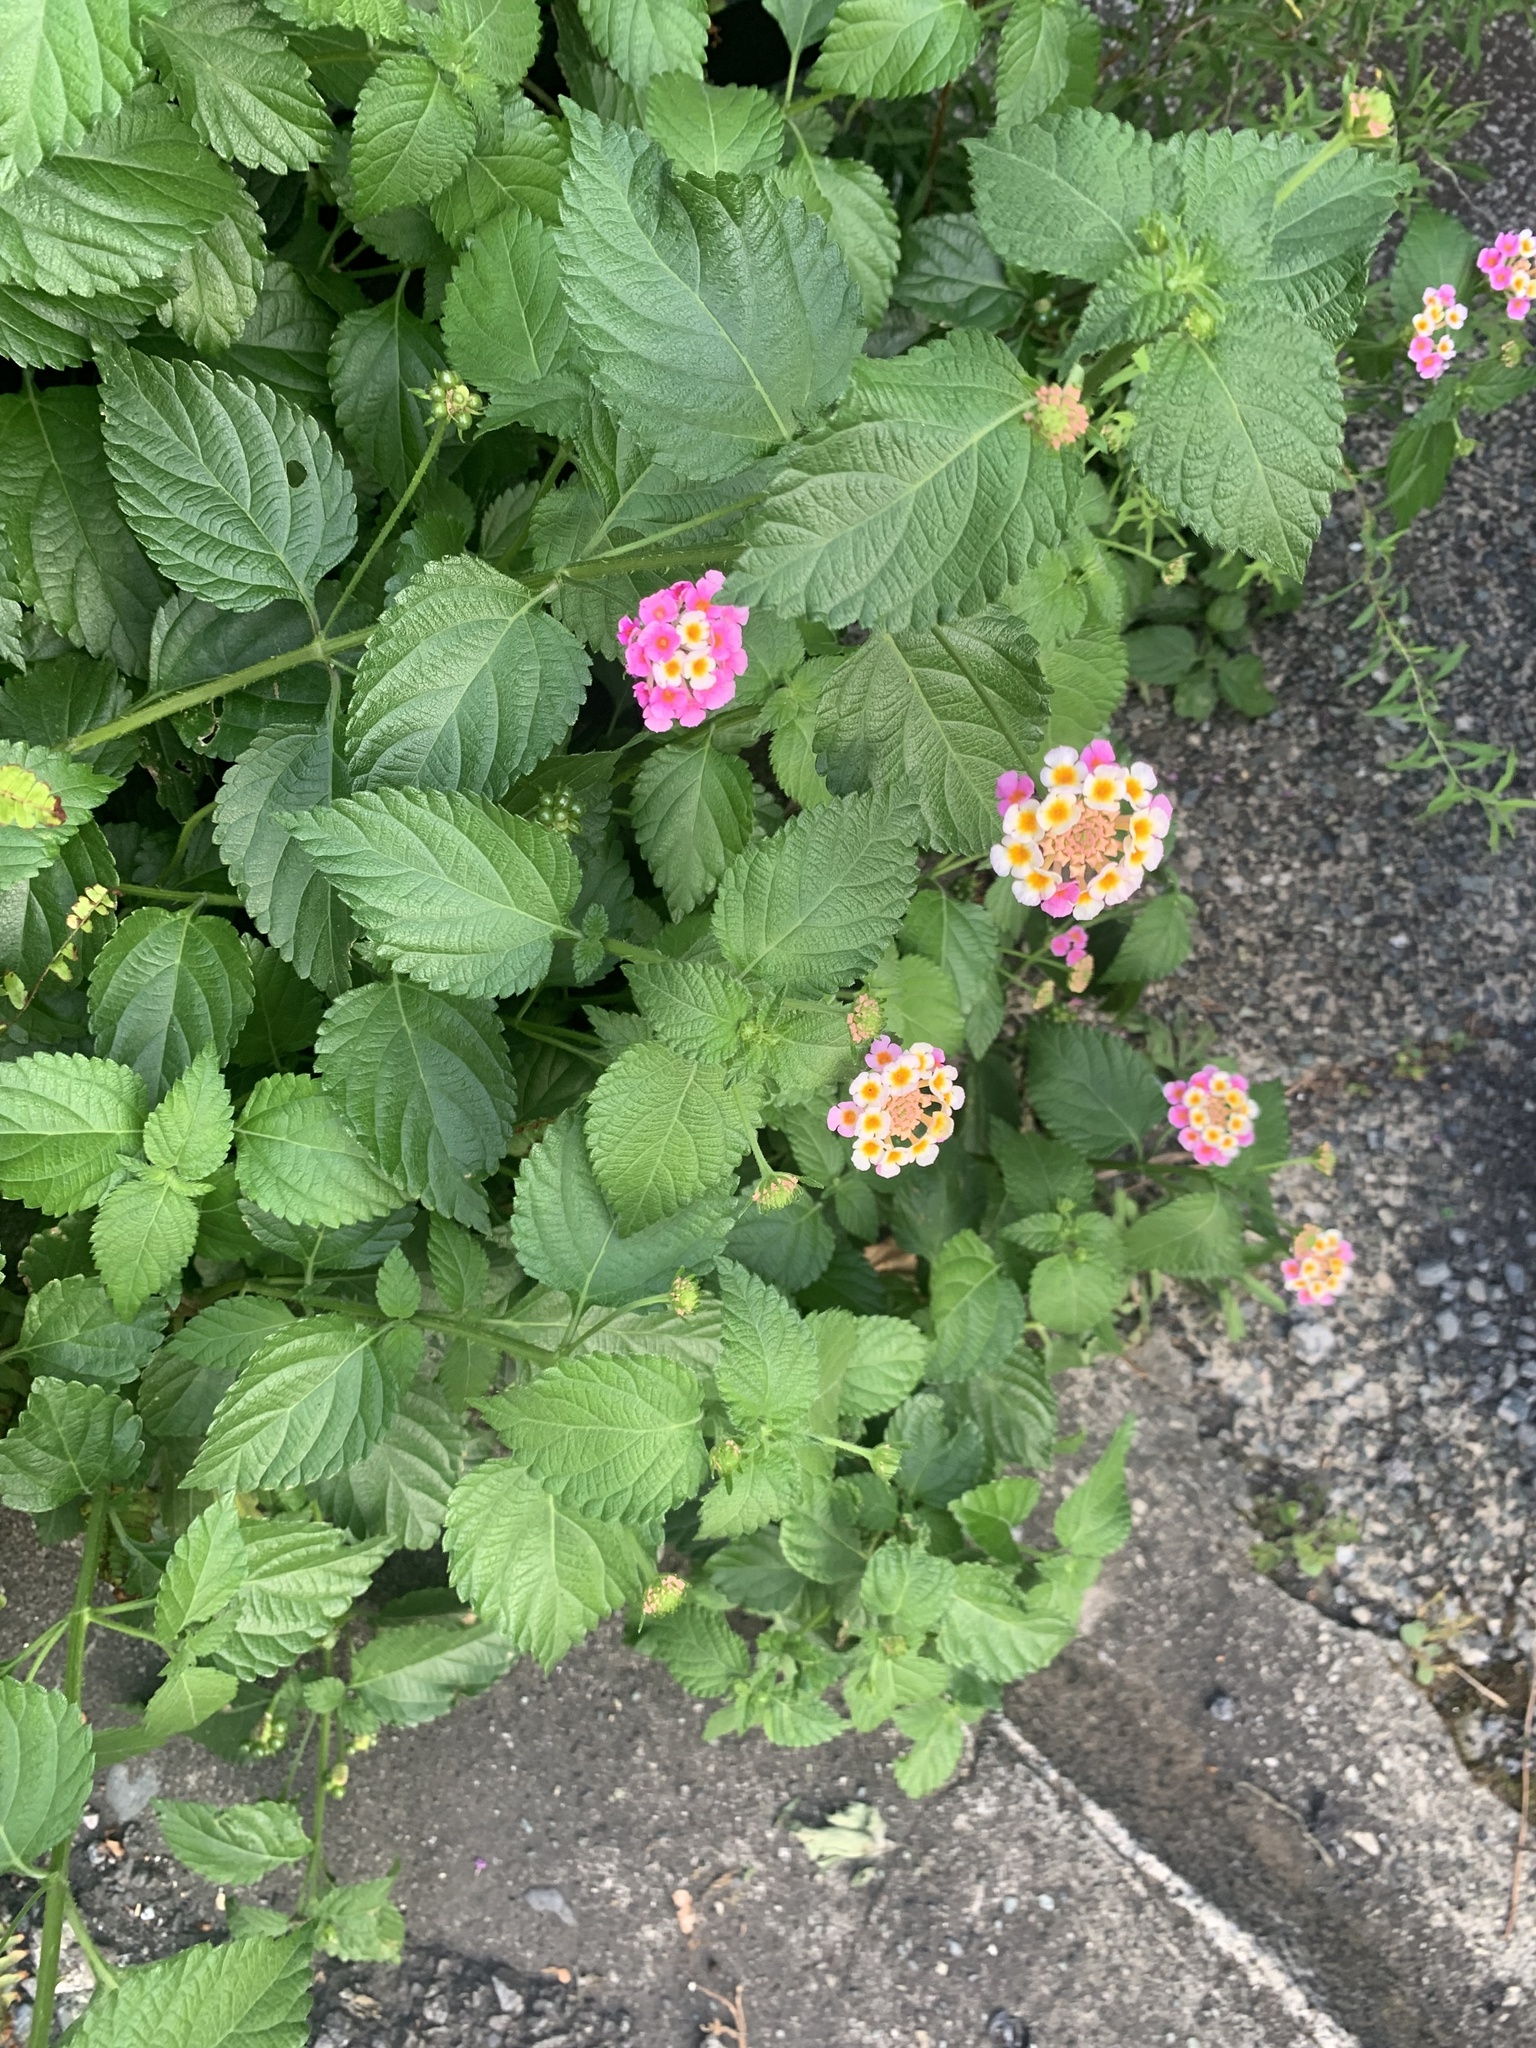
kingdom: Plantae
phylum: Tracheophyta
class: Magnoliopsida
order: Lamiales
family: Verbenaceae
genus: Lantana
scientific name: Lantana camara
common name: Lantana
